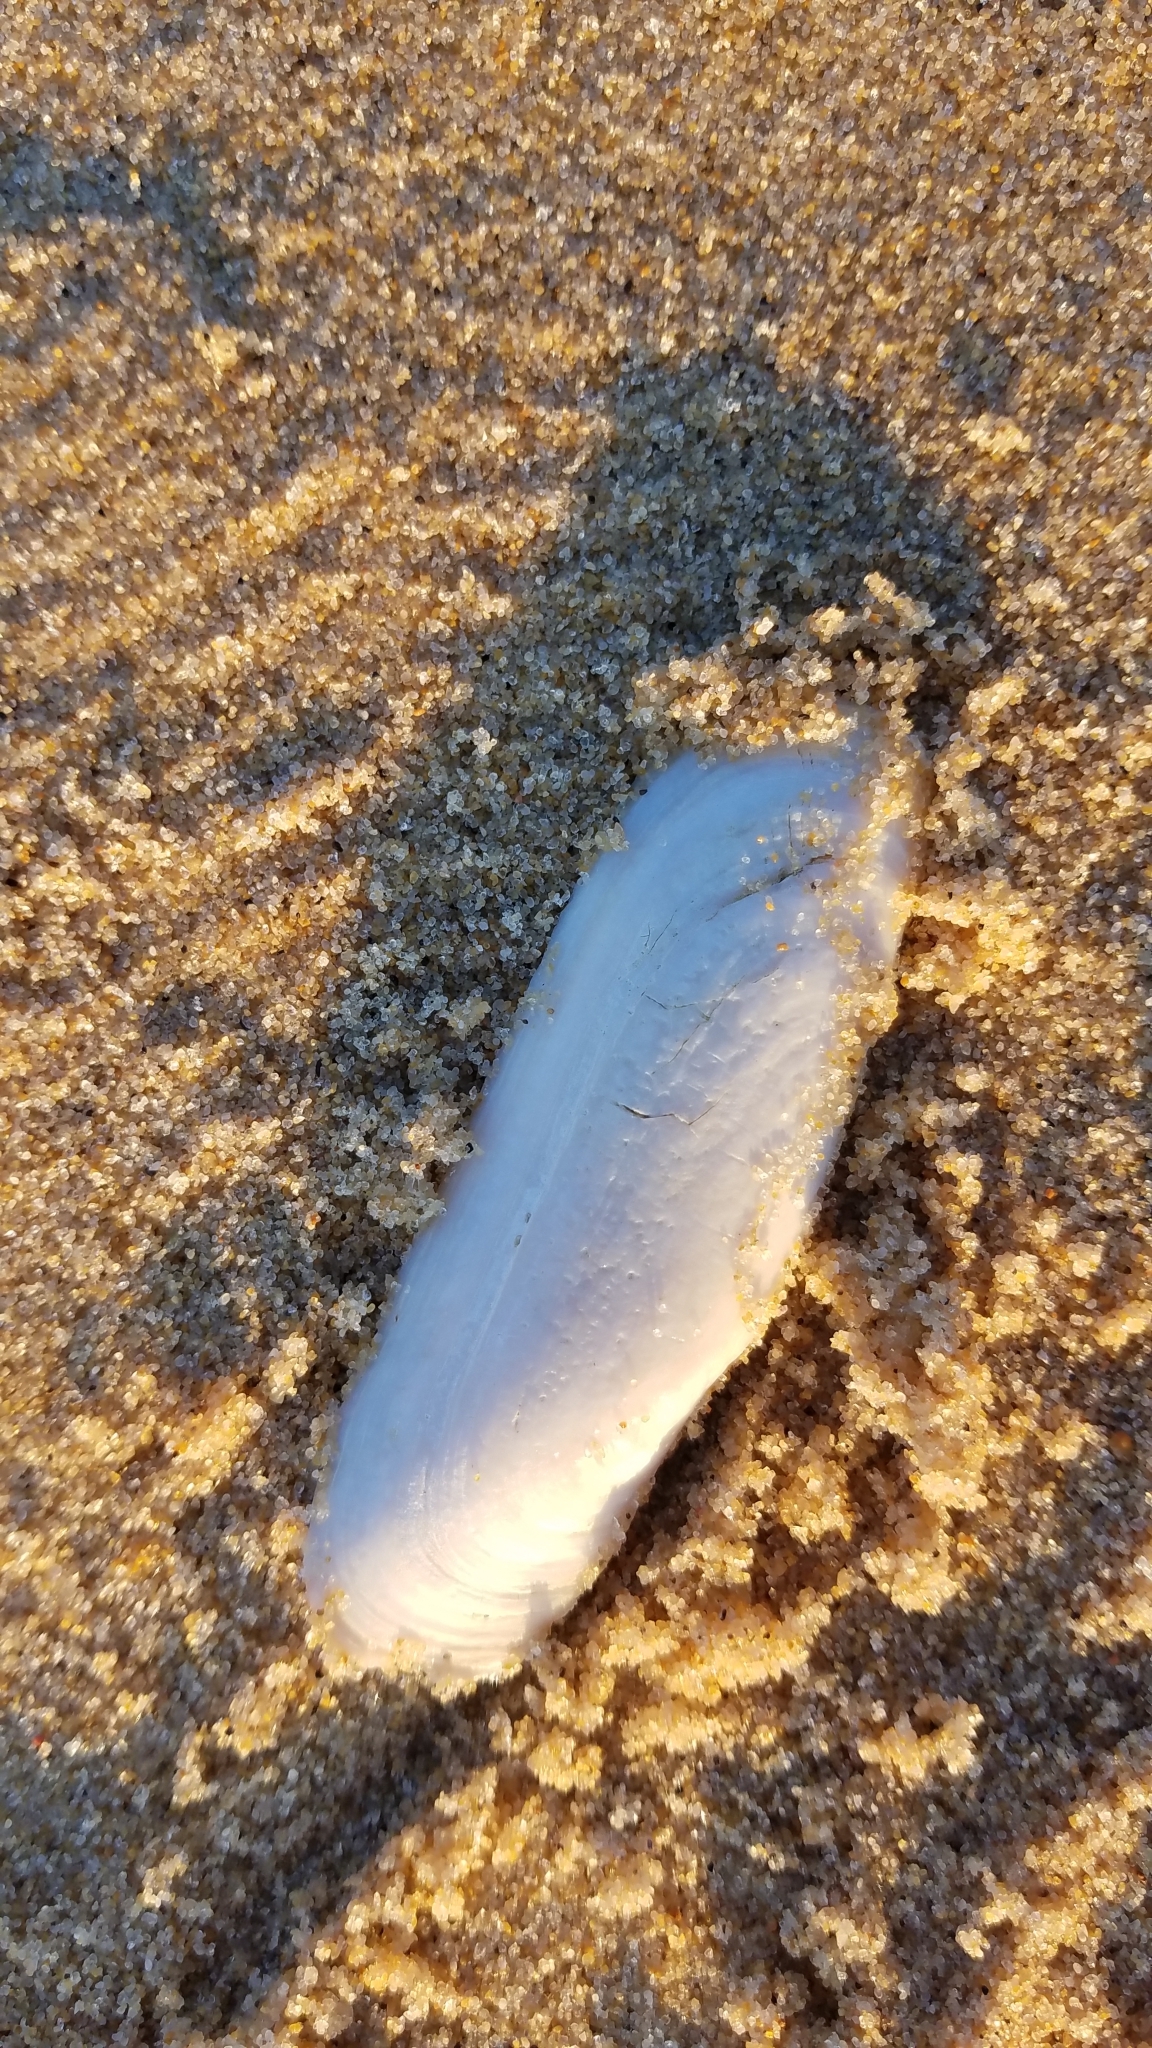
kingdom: Animalia
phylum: Mollusca
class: Bivalvia
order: Cardiida
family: Solecurtidae
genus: Tagelus
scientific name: Tagelus plebeius
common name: Stout tagelus
